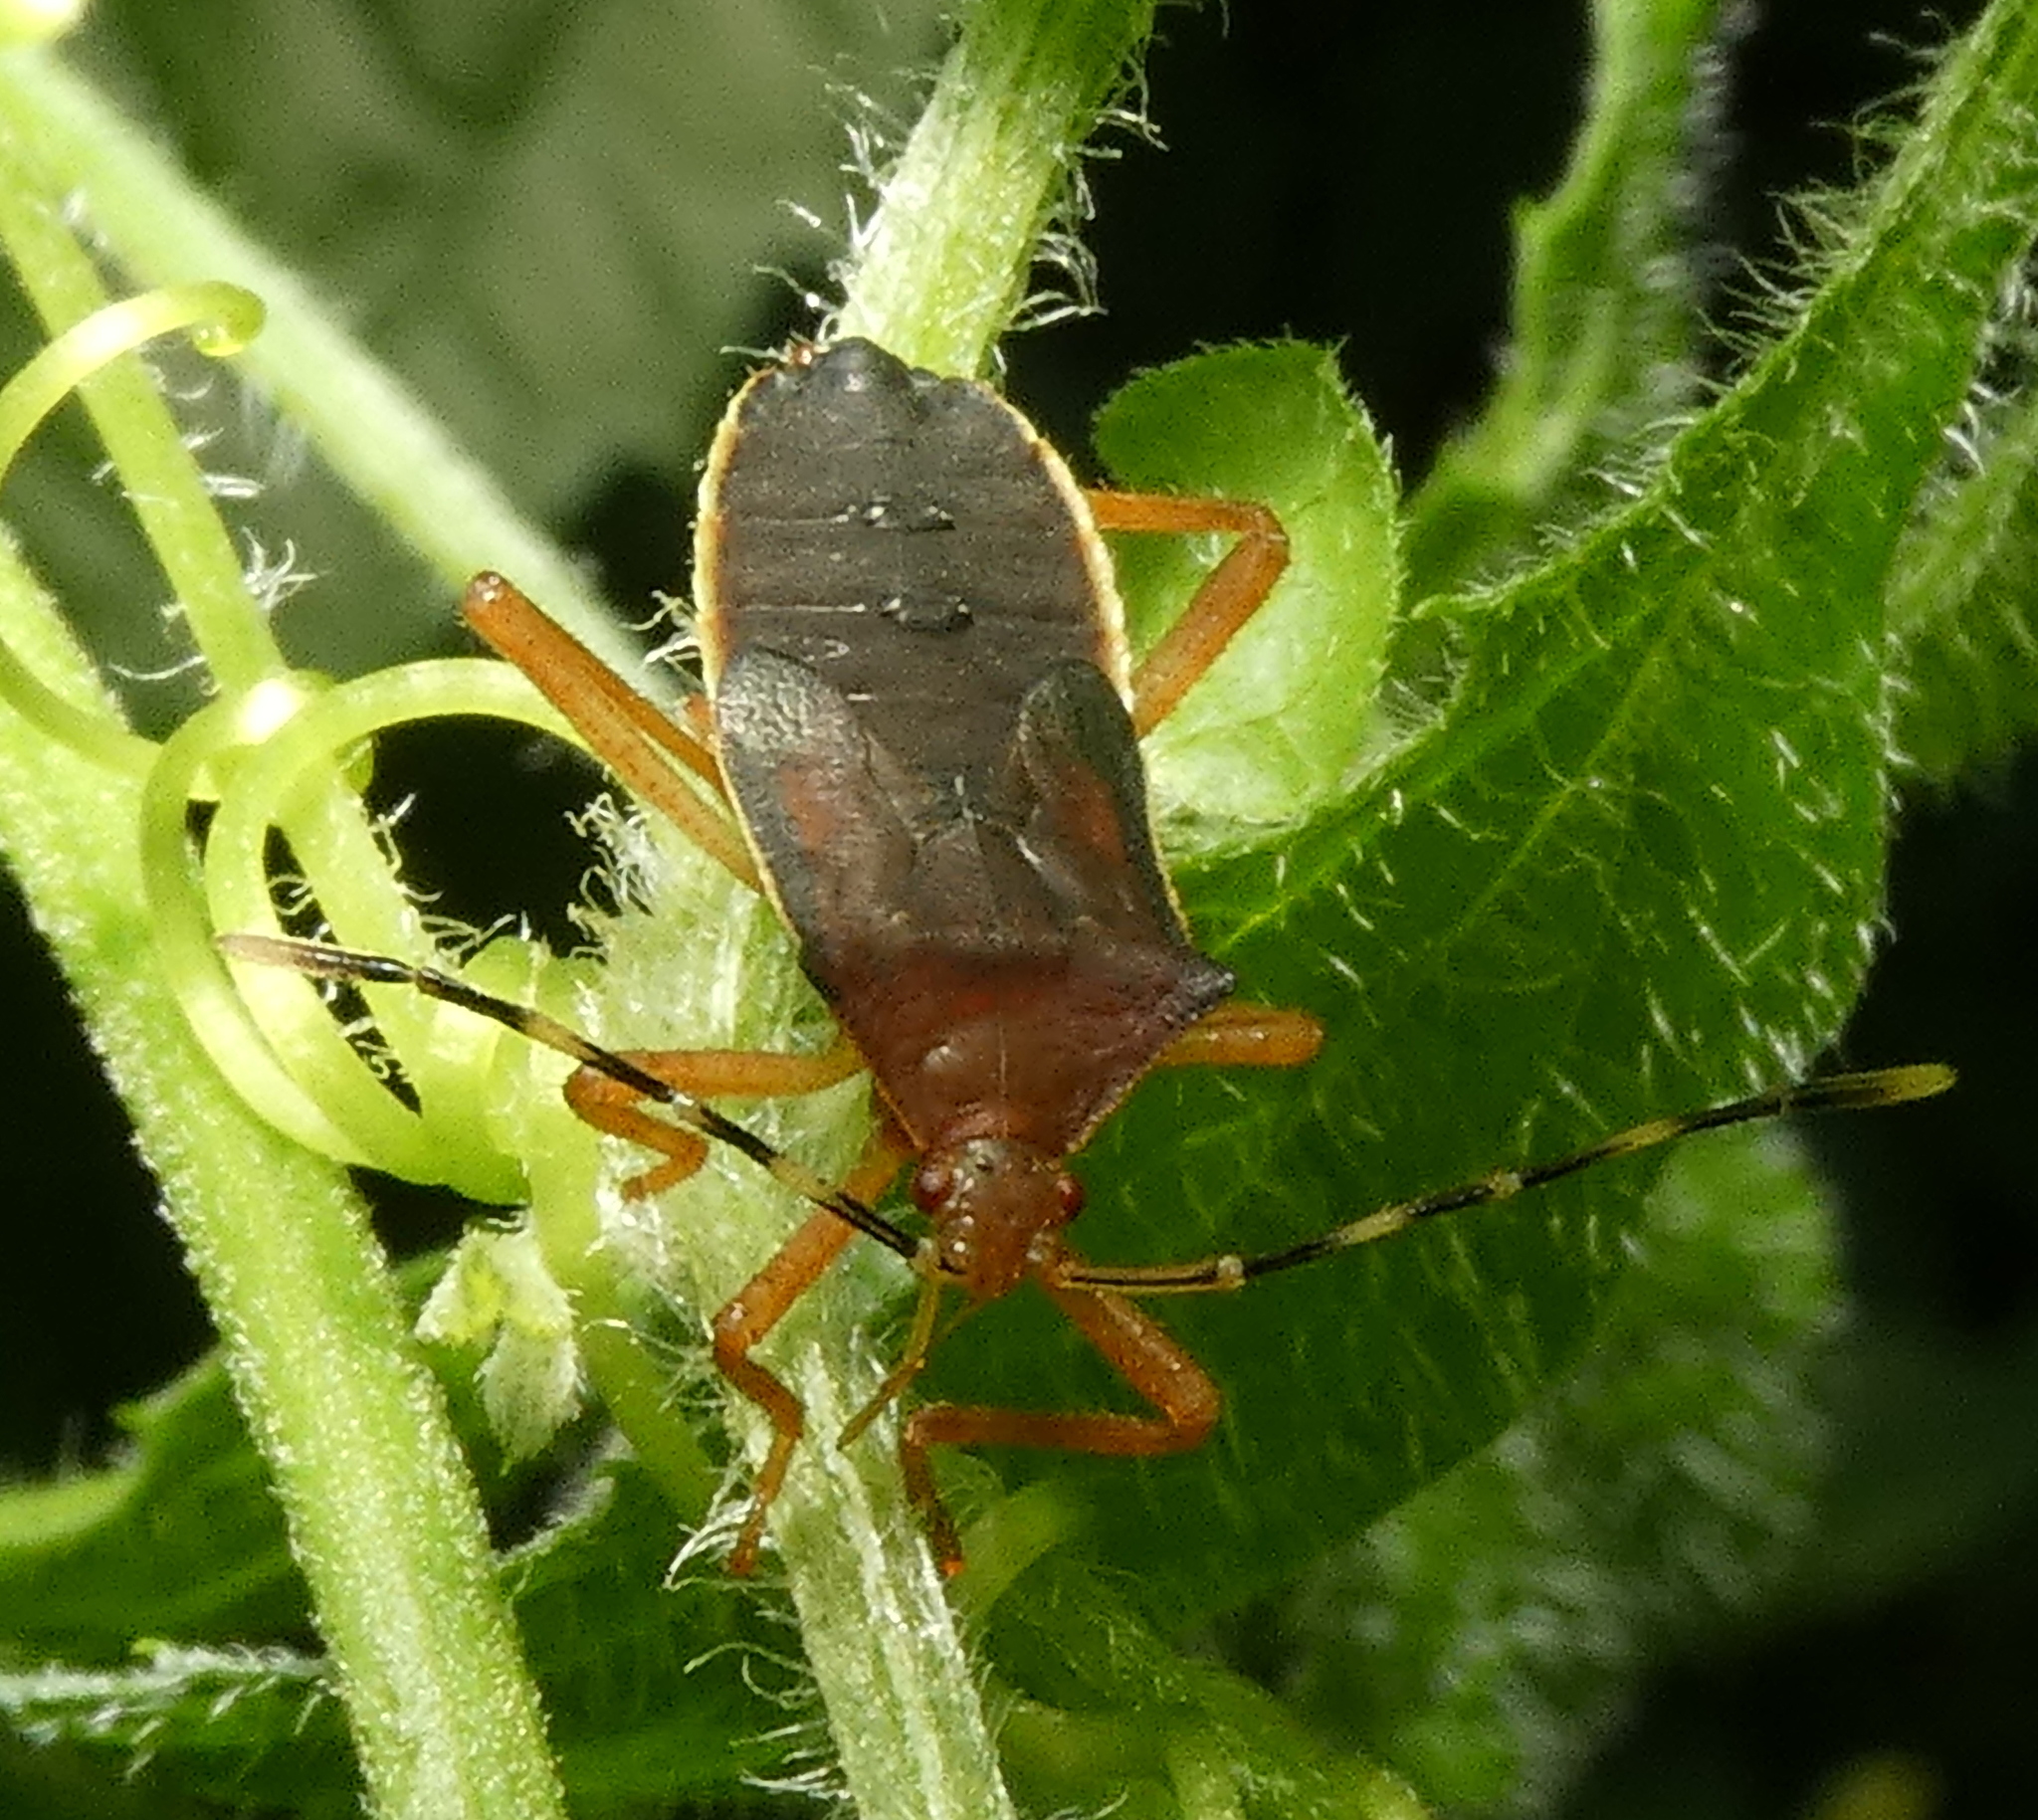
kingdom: Animalia
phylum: Arthropoda
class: Insecta
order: Hemiptera
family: Coreidae
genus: Anasa
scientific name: Anasa varicornis
